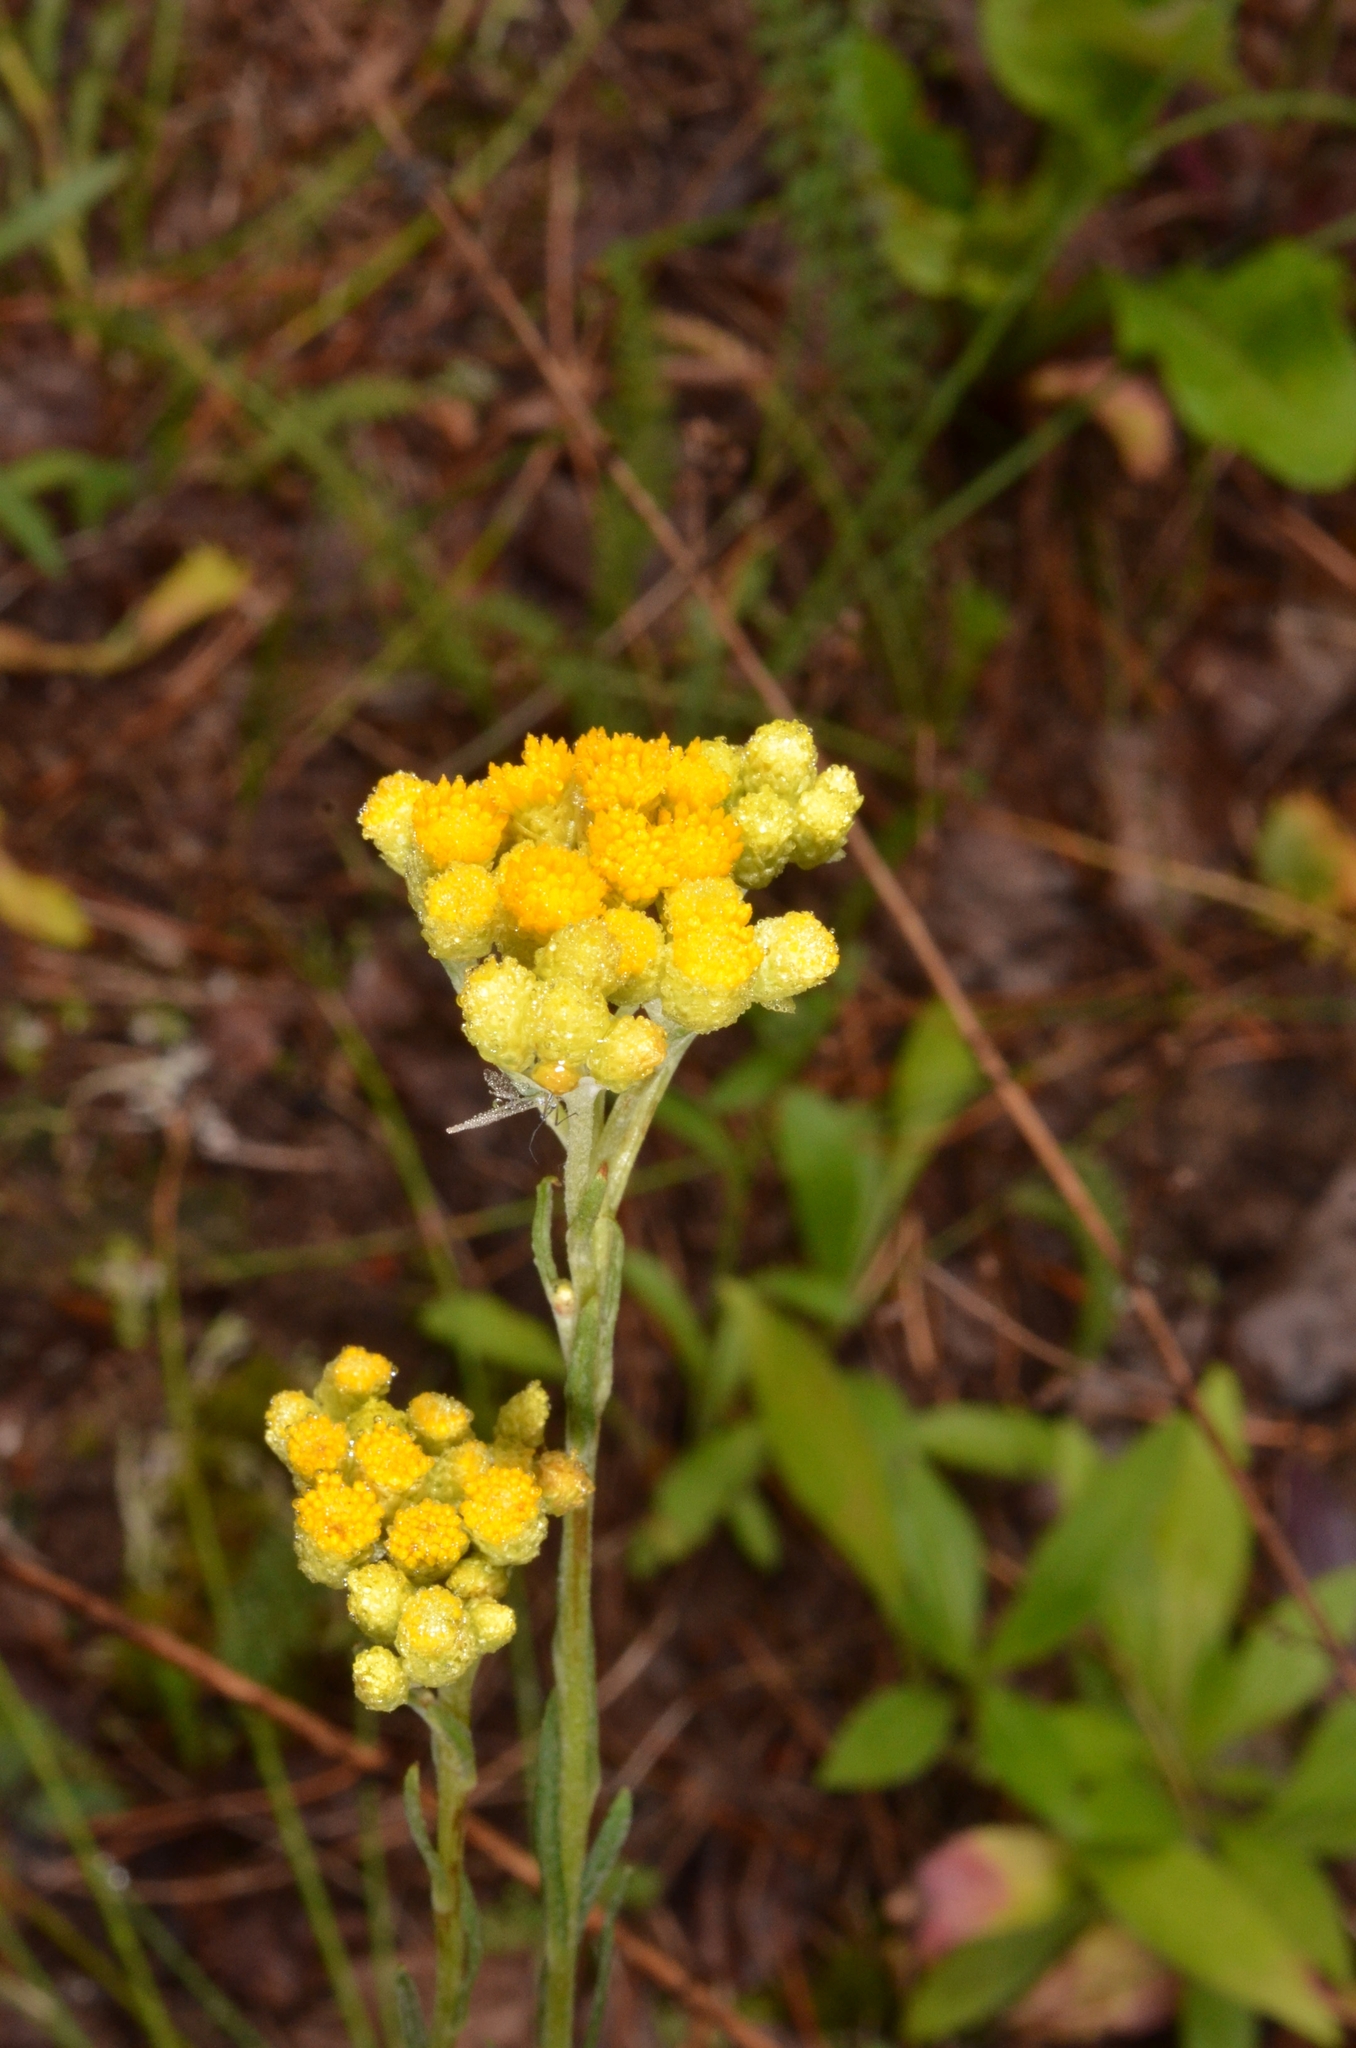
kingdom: Plantae
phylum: Tracheophyta
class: Magnoliopsida
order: Asterales
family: Asteraceae
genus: Helichrysum
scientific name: Helichrysum arenarium
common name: Strawflower
